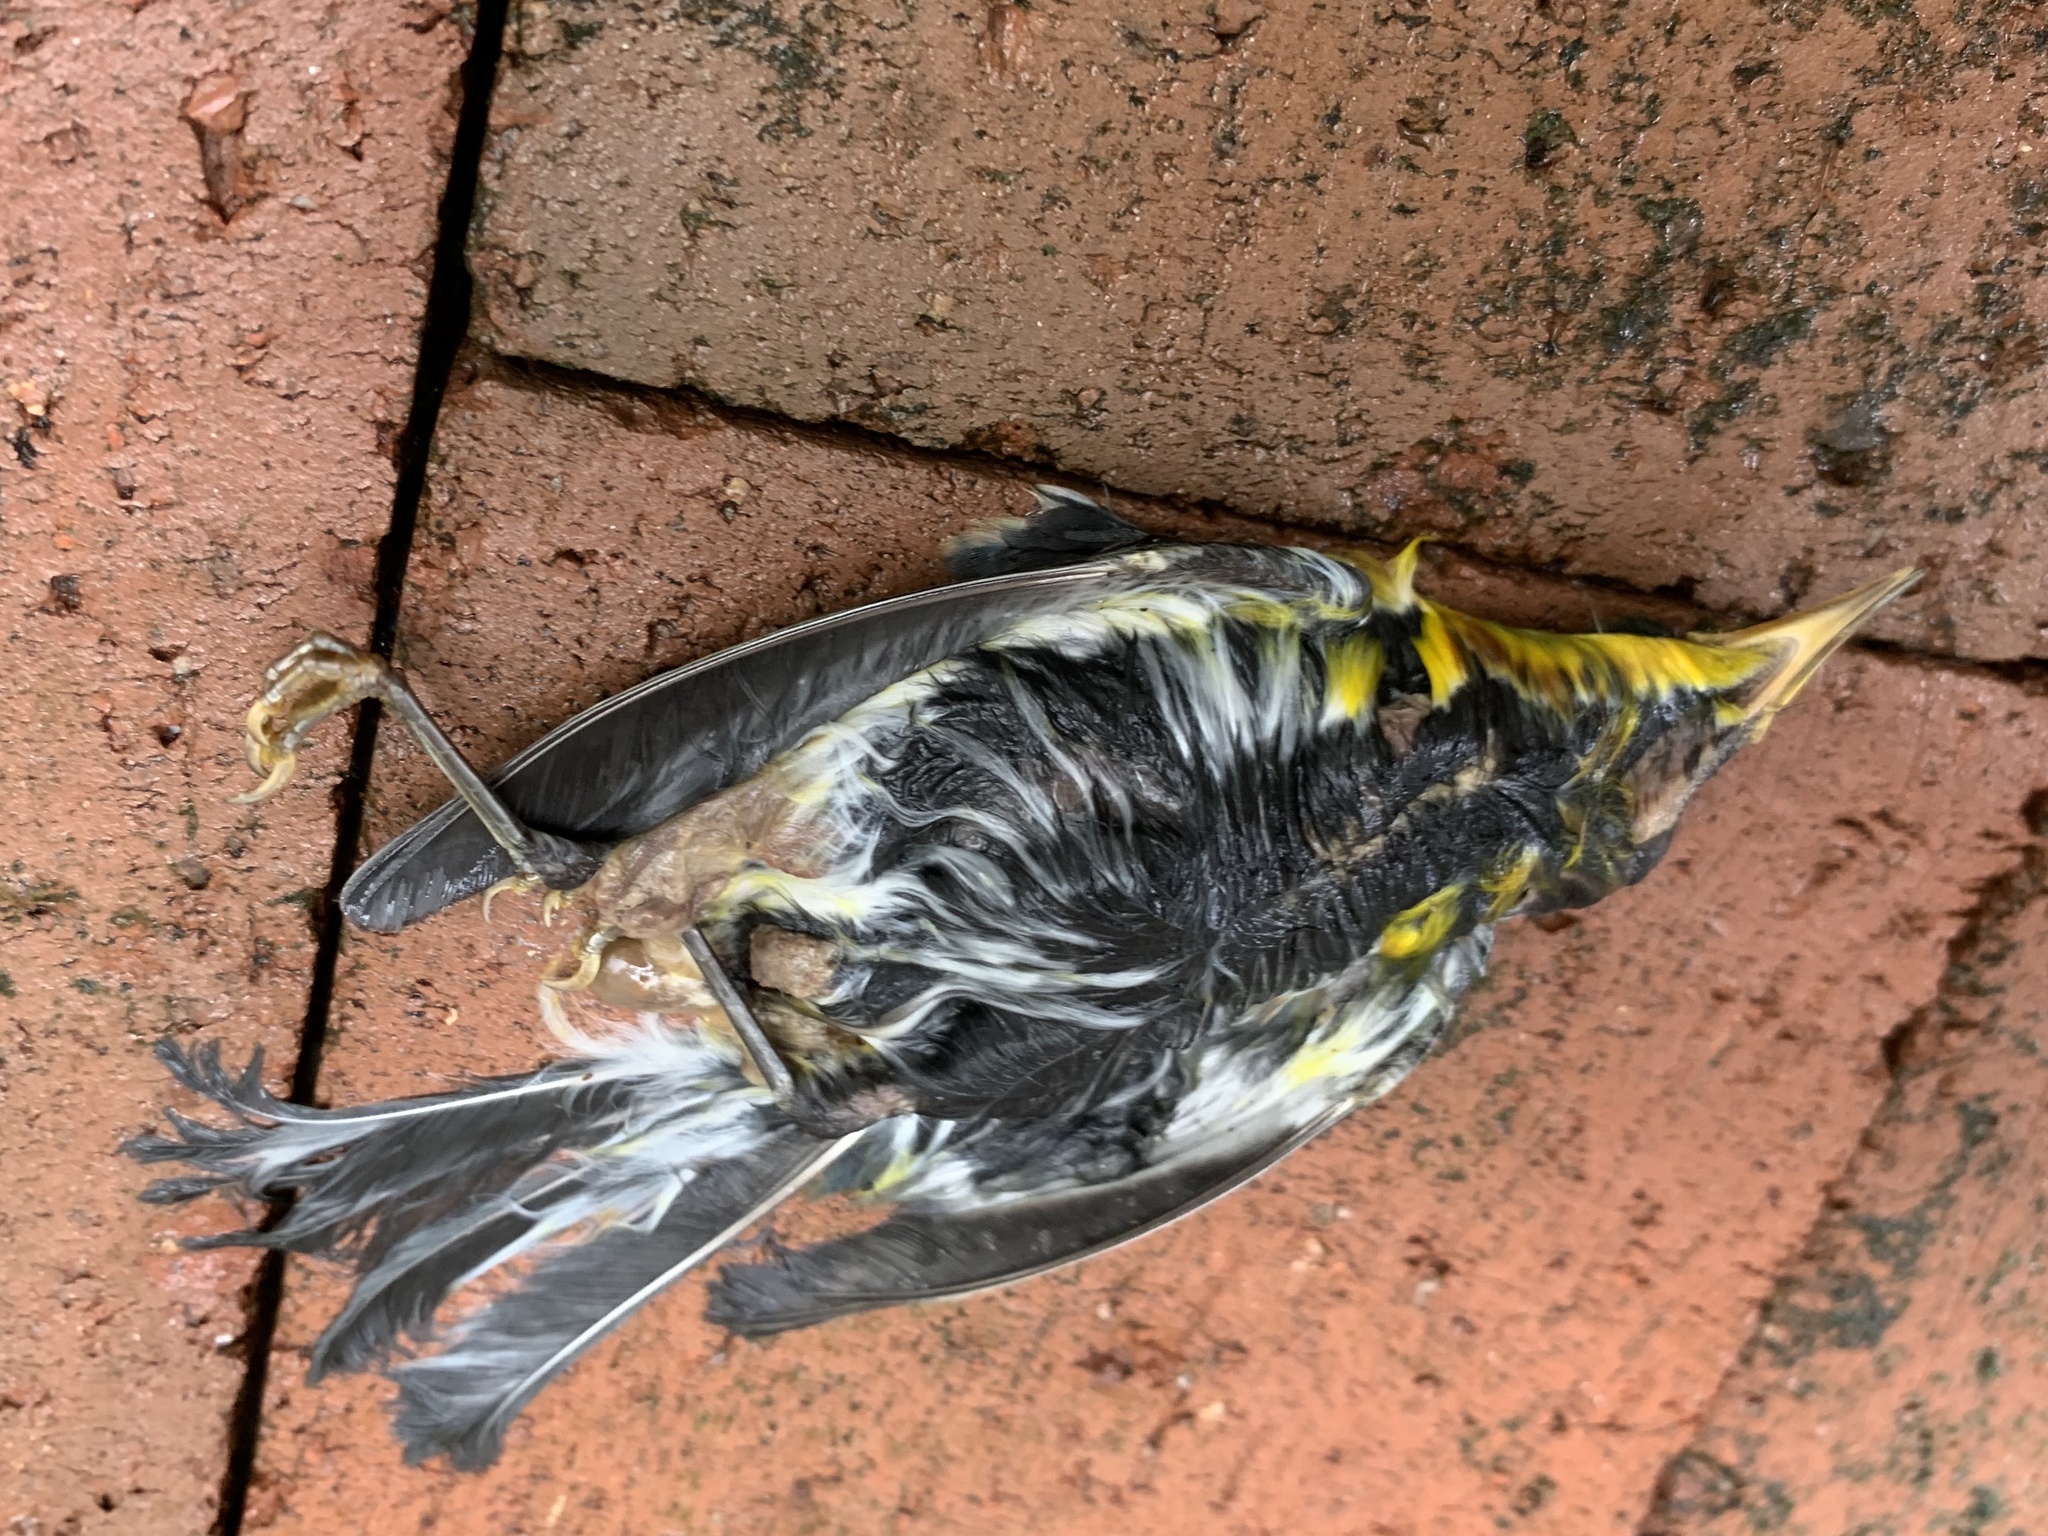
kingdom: Animalia
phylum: Chordata
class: Aves
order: Passeriformes
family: Parulidae
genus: Setophaga
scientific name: Setophaga americana
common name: Northern parula
